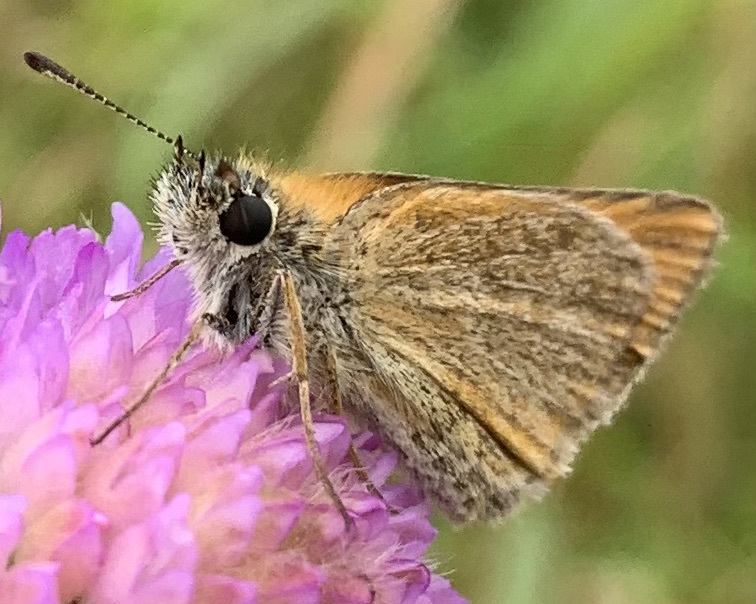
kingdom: Animalia
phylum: Arthropoda
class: Insecta
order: Lepidoptera
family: Hesperiidae
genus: Thymelicus
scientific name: Thymelicus lineola
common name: Essex skipper
